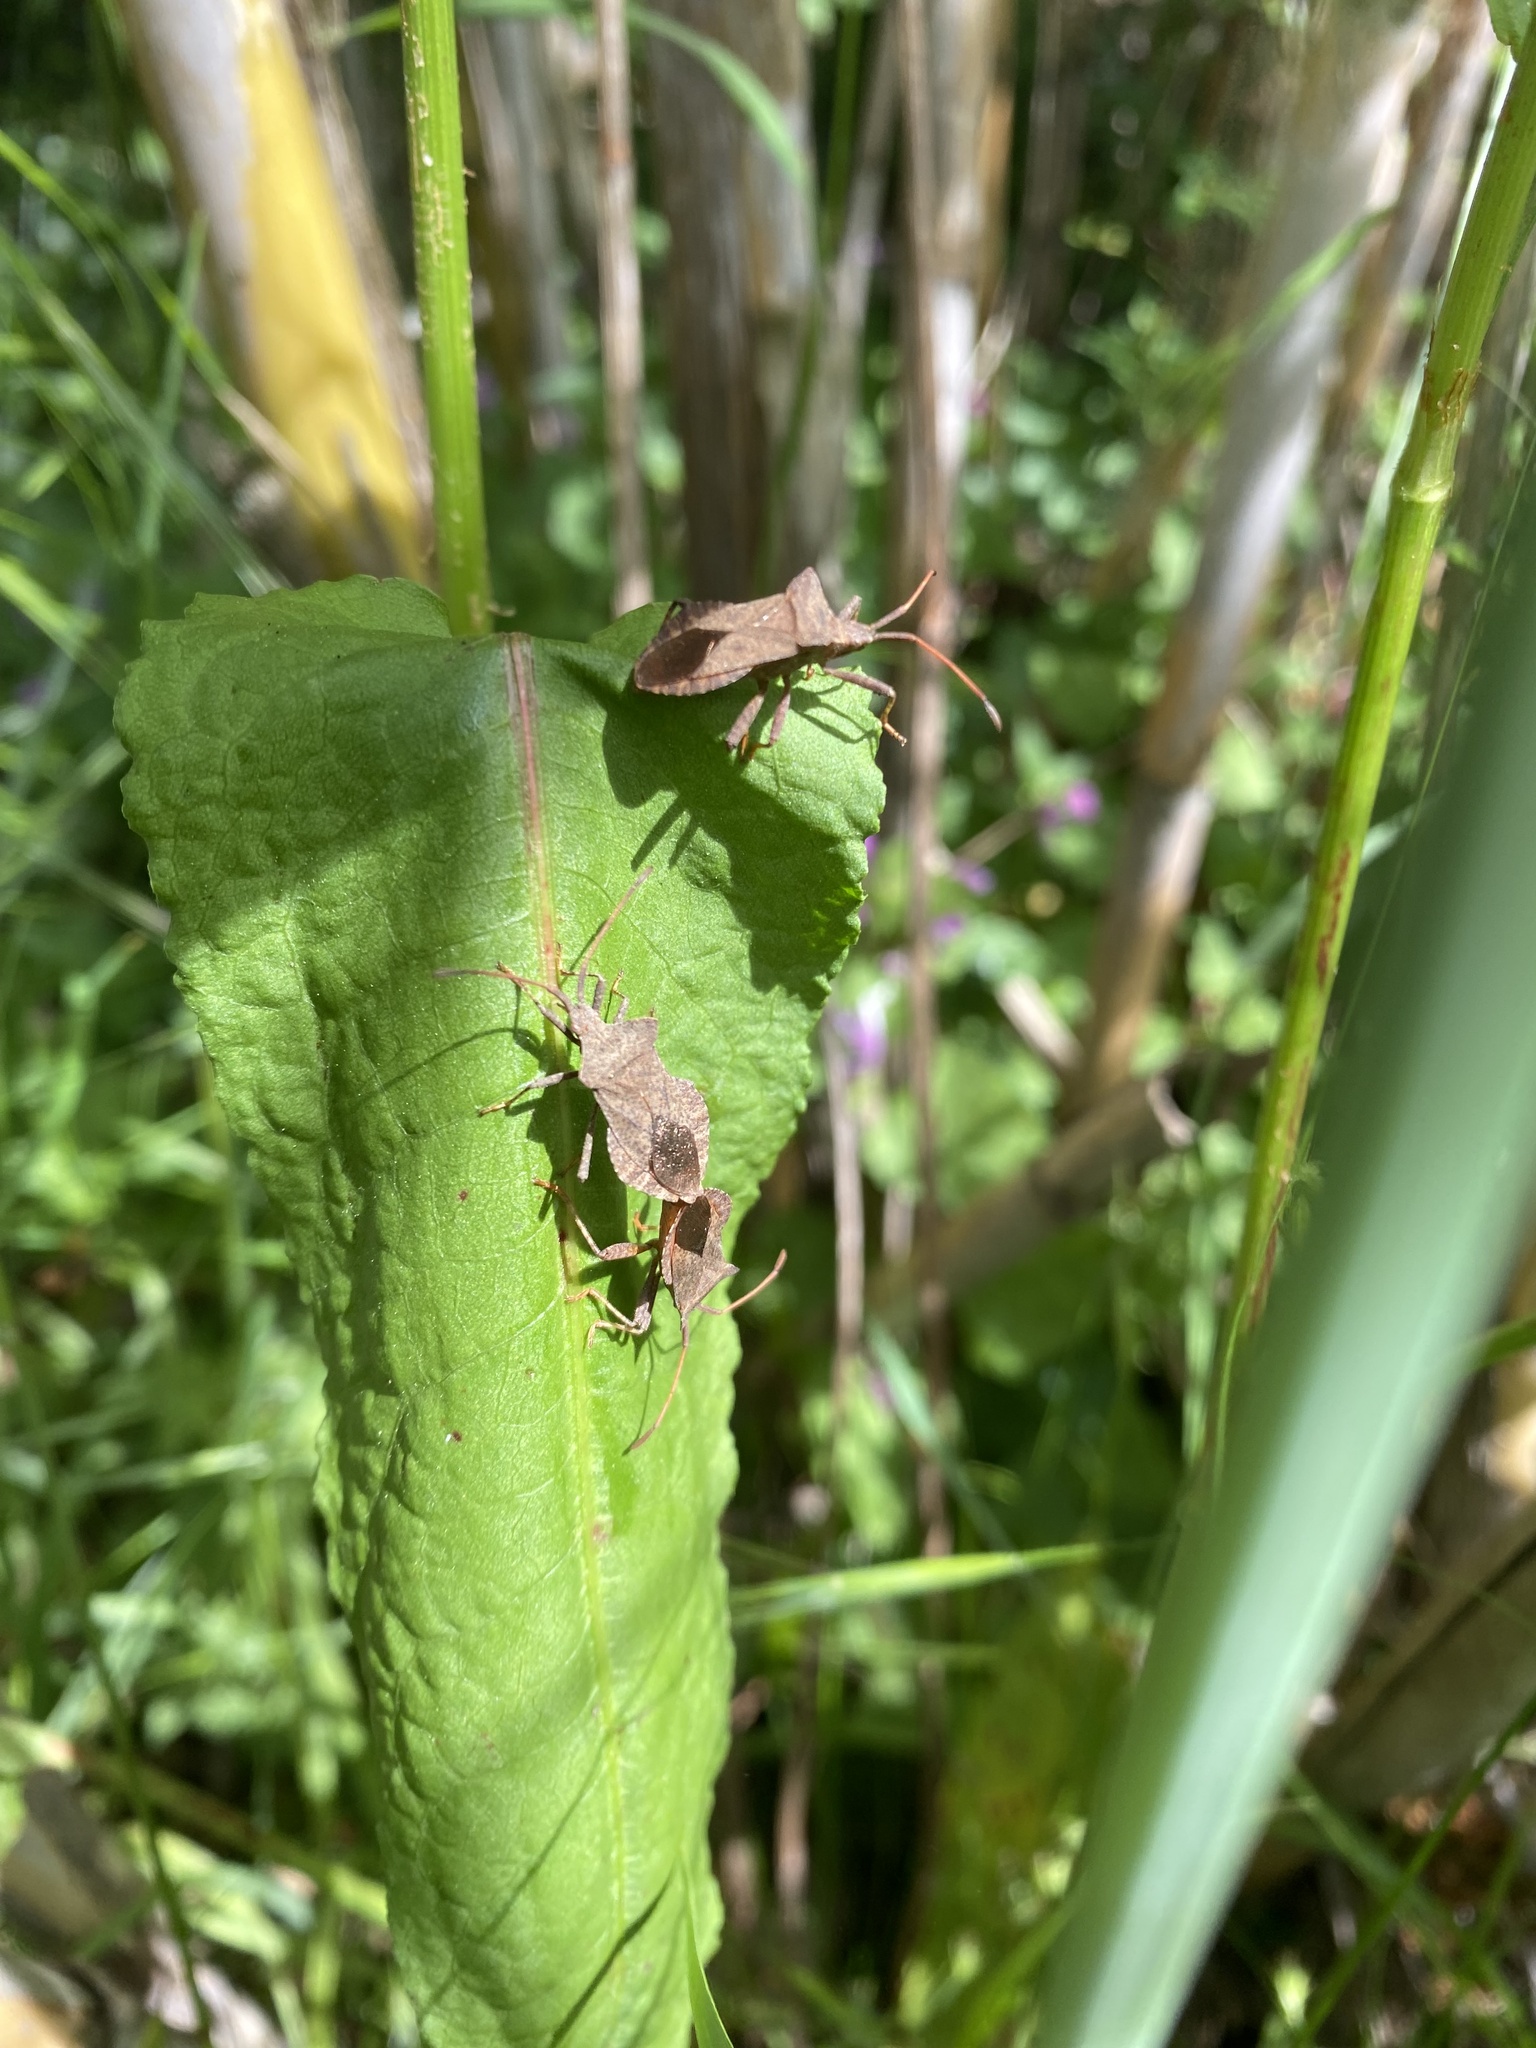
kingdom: Animalia
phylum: Arthropoda
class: Insecta
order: Hemiptera
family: Coreidae
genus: Coreus
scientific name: Coreus marginatus
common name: Dock bug
